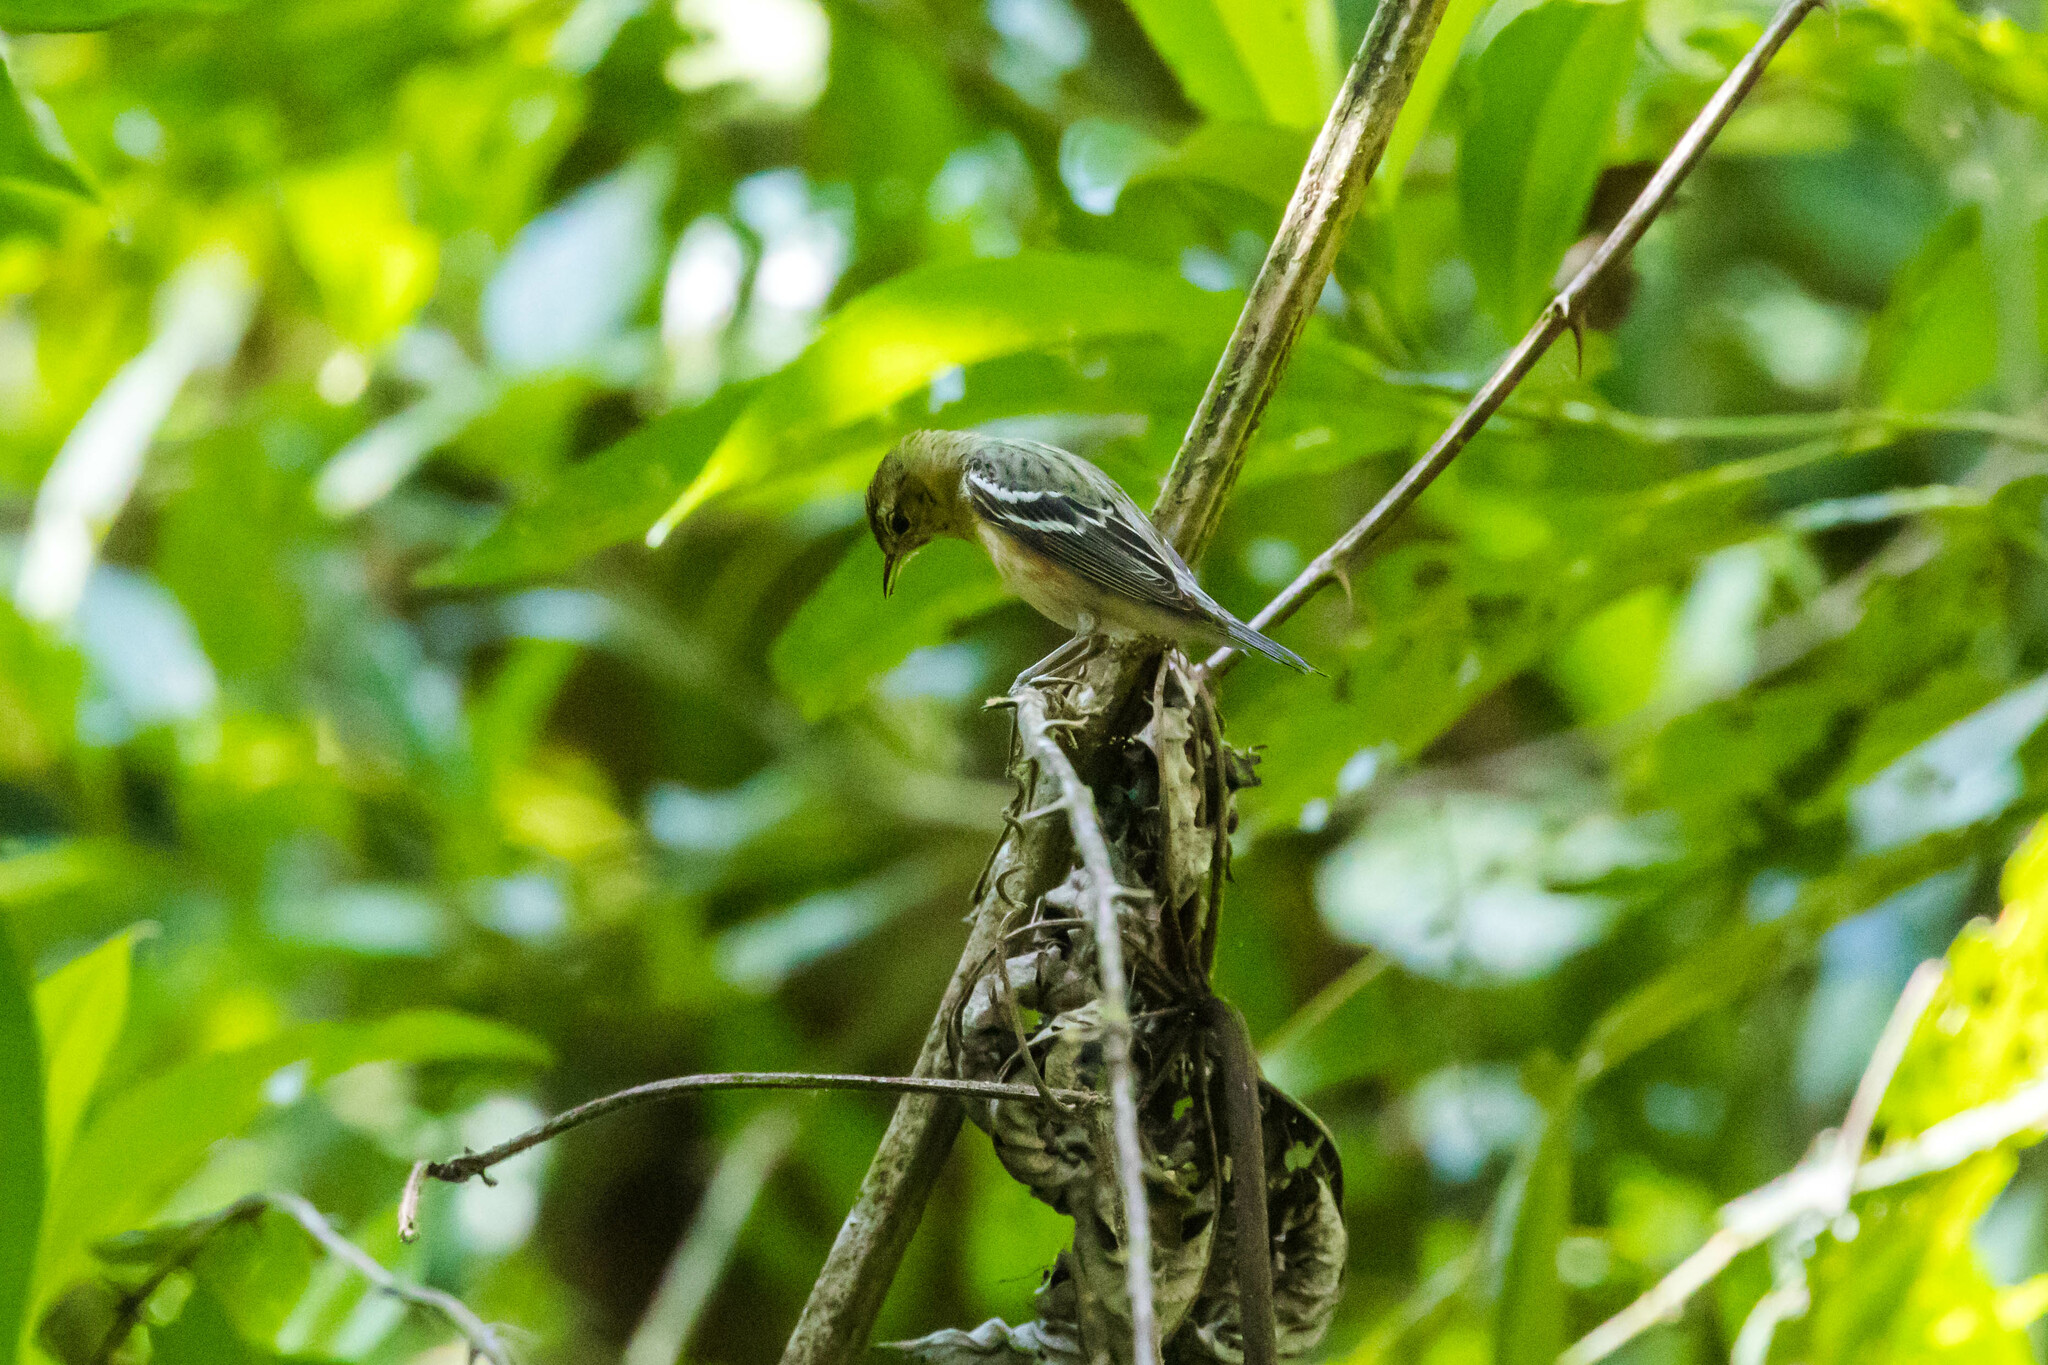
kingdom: Animalia
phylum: Chordata
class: Aves
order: Passeriformes
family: Parulidae
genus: Setophaga
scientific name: Setophaga castanea
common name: Bay-breasted warbler
